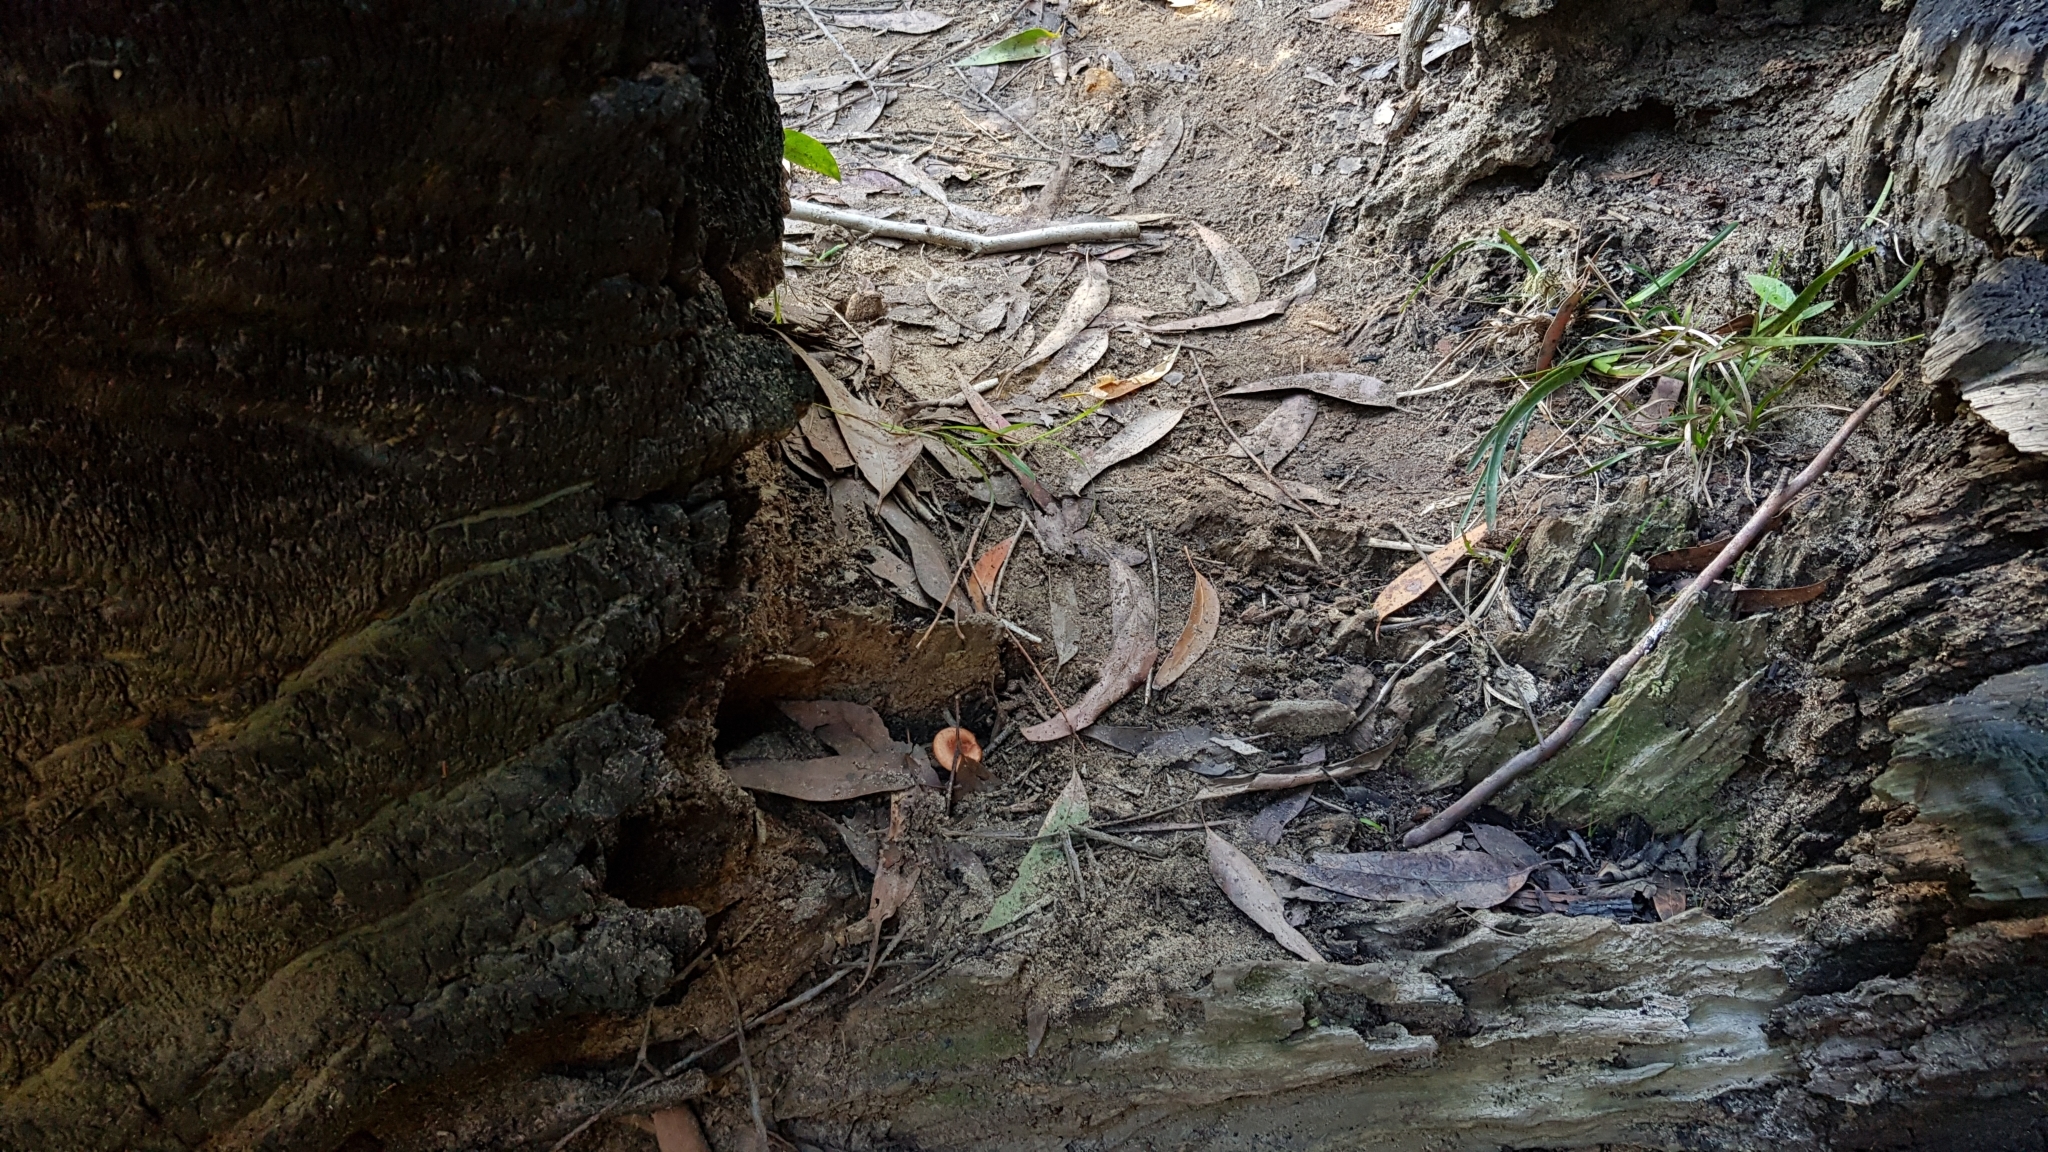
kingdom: Fungi
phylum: Basidiomycota
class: Agaricomycetes
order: Russulales
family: Russulaceae
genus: Lactarius
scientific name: Lactarius eucalypti
